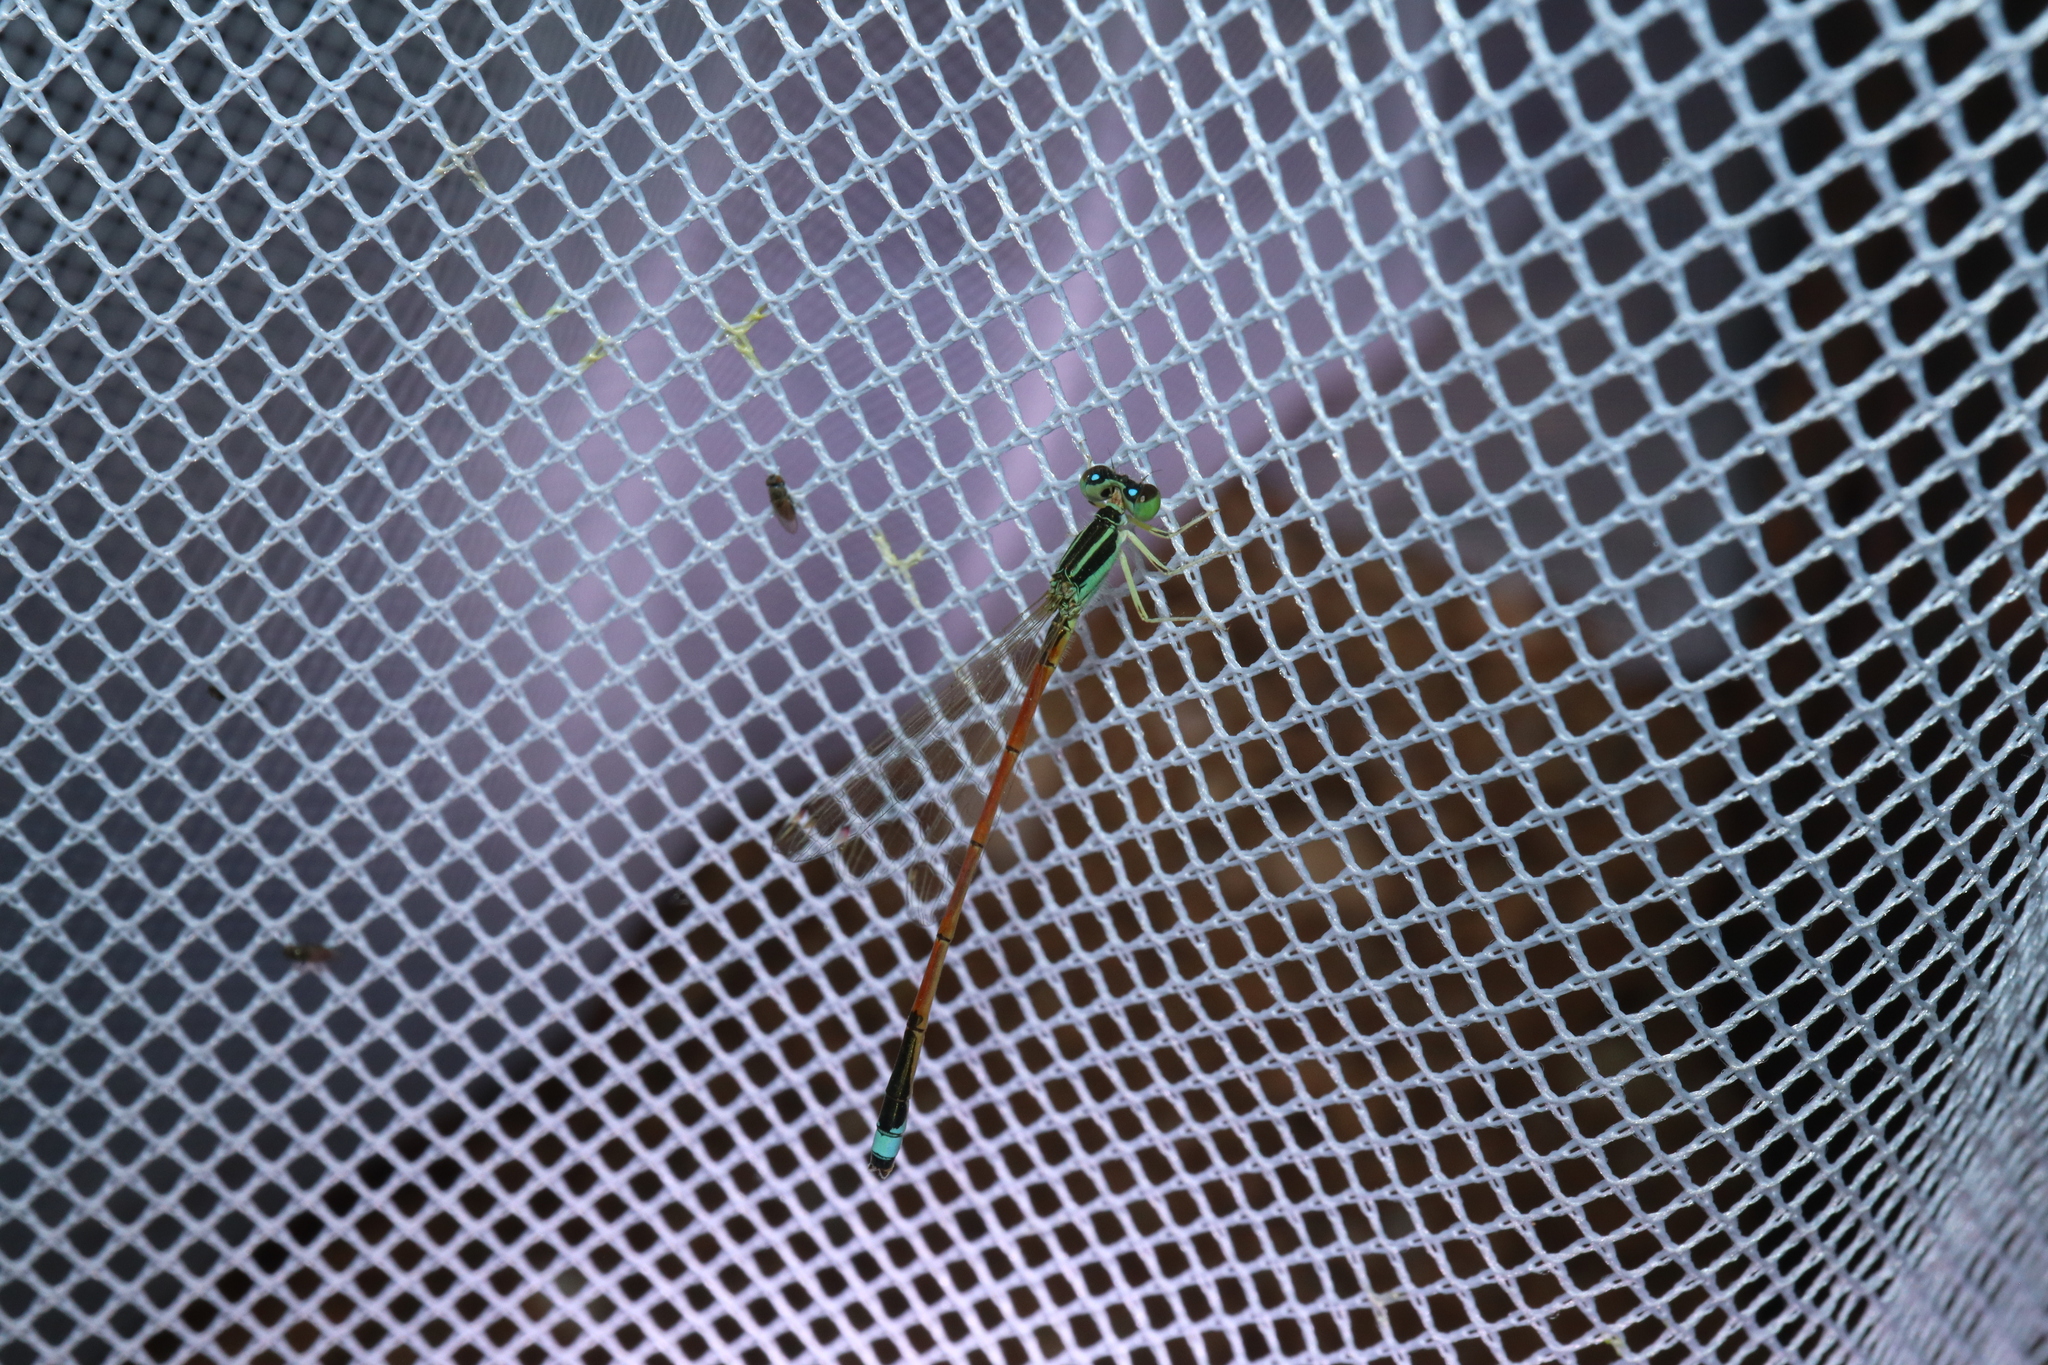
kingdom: Animalia
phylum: Arthropoda
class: Insecta
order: Odonata
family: Coenagrionidae
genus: Ischnura
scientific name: Ischnura aurora
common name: Gossamer damselfly
